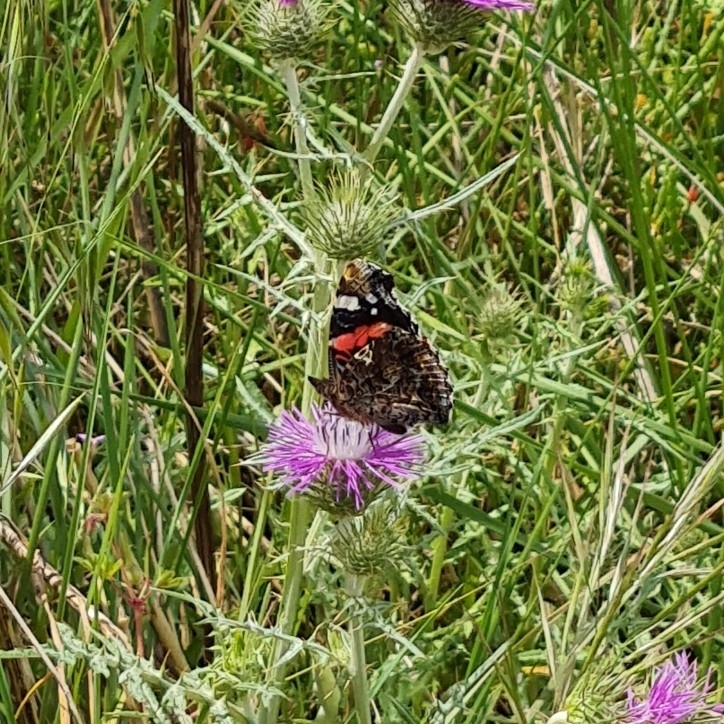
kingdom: Animalia
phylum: Arthropoda
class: Insecta
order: Lepidoptera
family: Nymphalidae
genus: Vanessa
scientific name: Vanessa atalanta
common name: Red admiral
